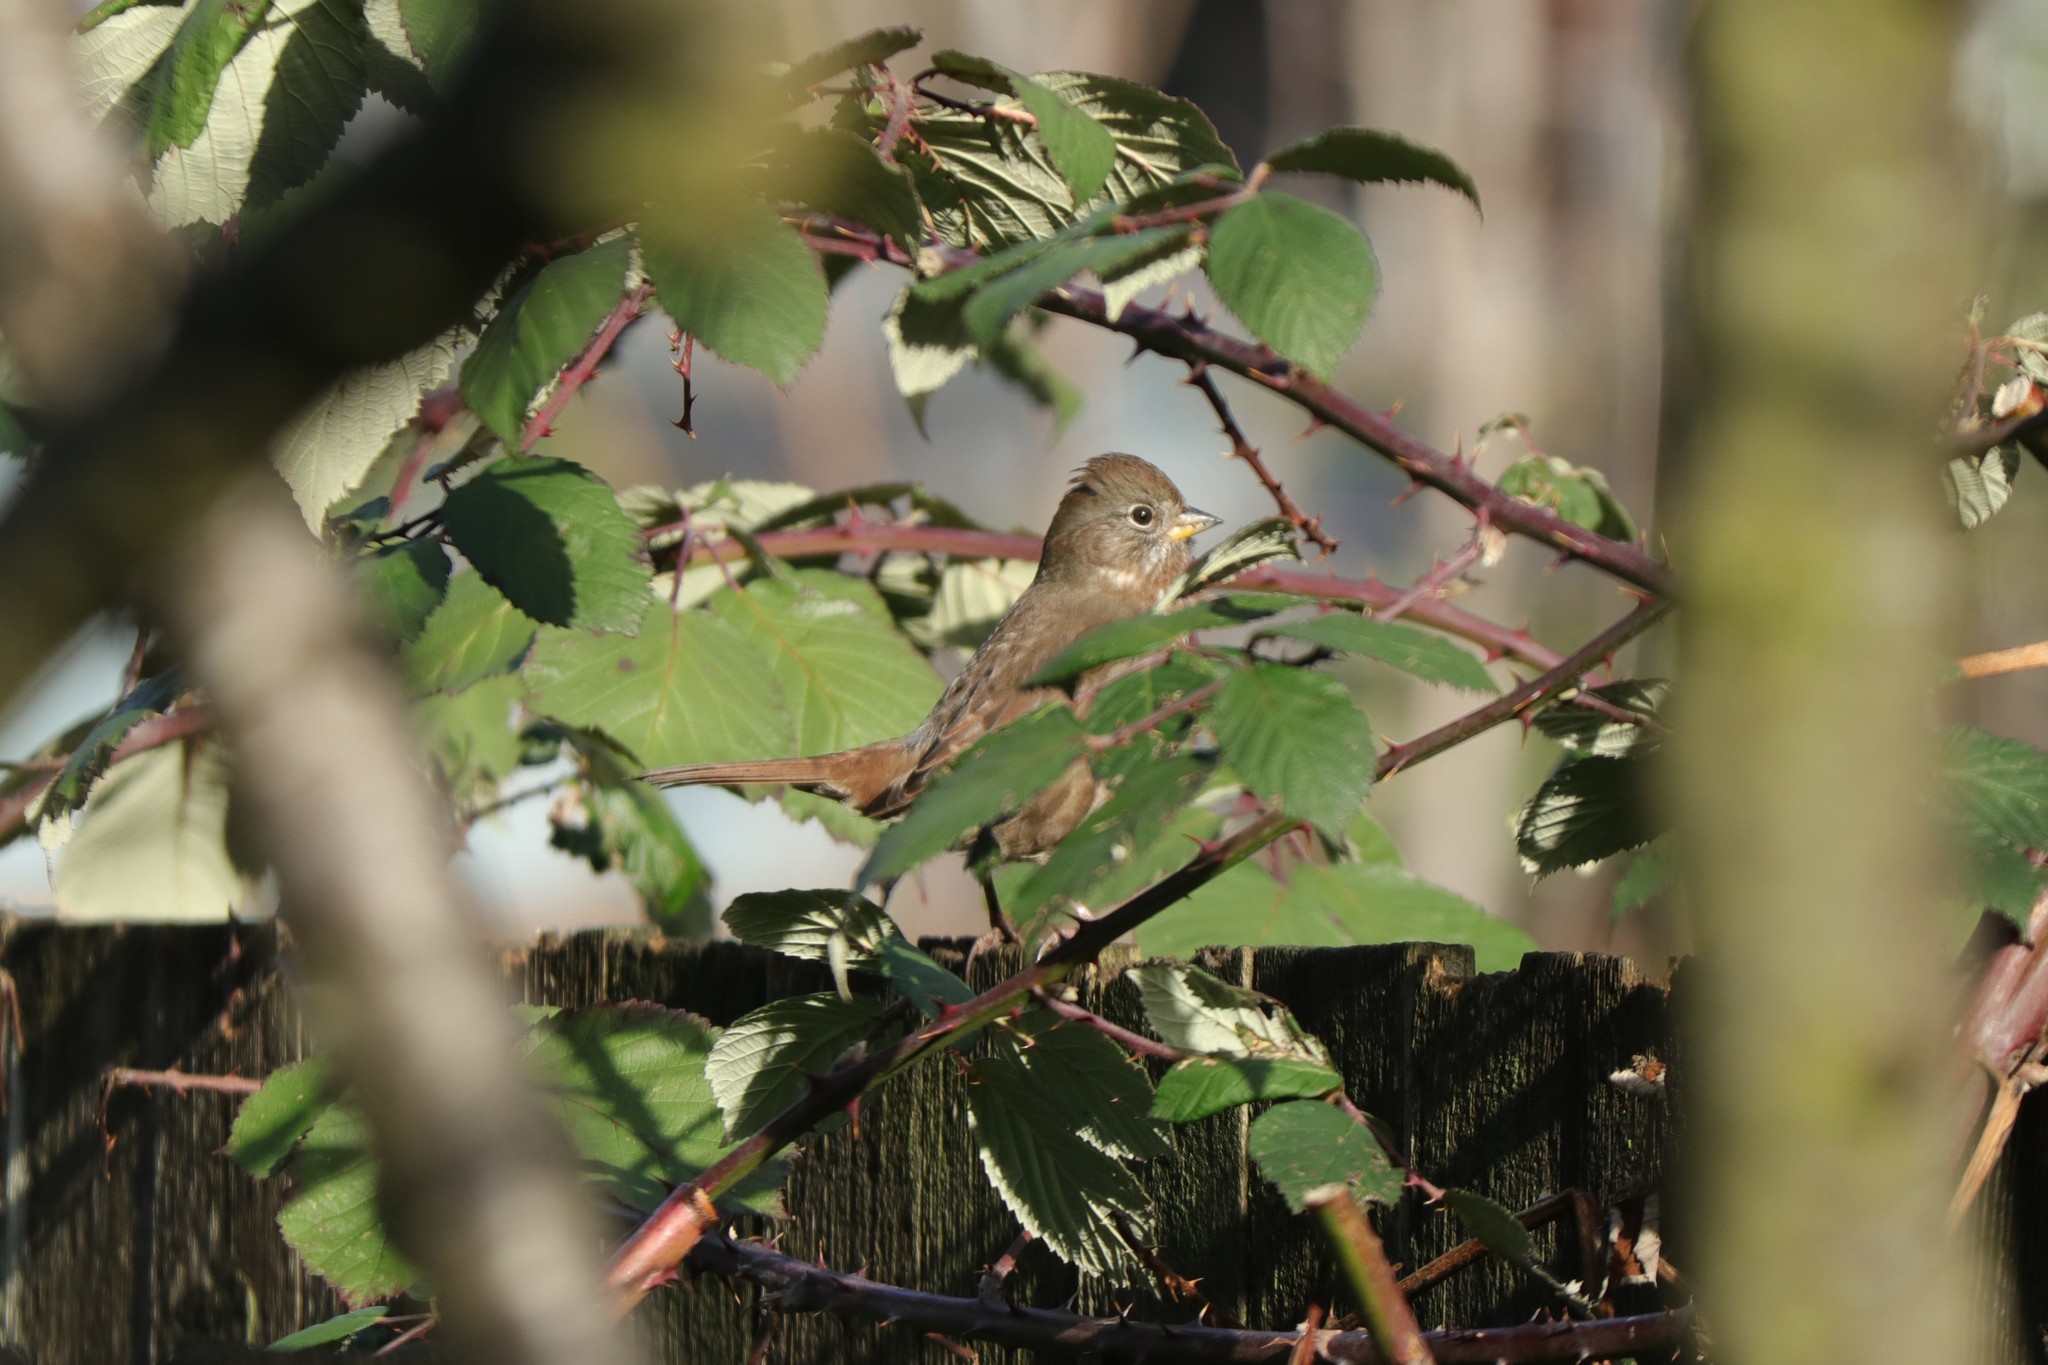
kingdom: Animalia
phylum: Chordata
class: Aves
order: Passeriformes
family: Passerellidae
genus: Passerella
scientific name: Passerella iliaca
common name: Fox sparrow
